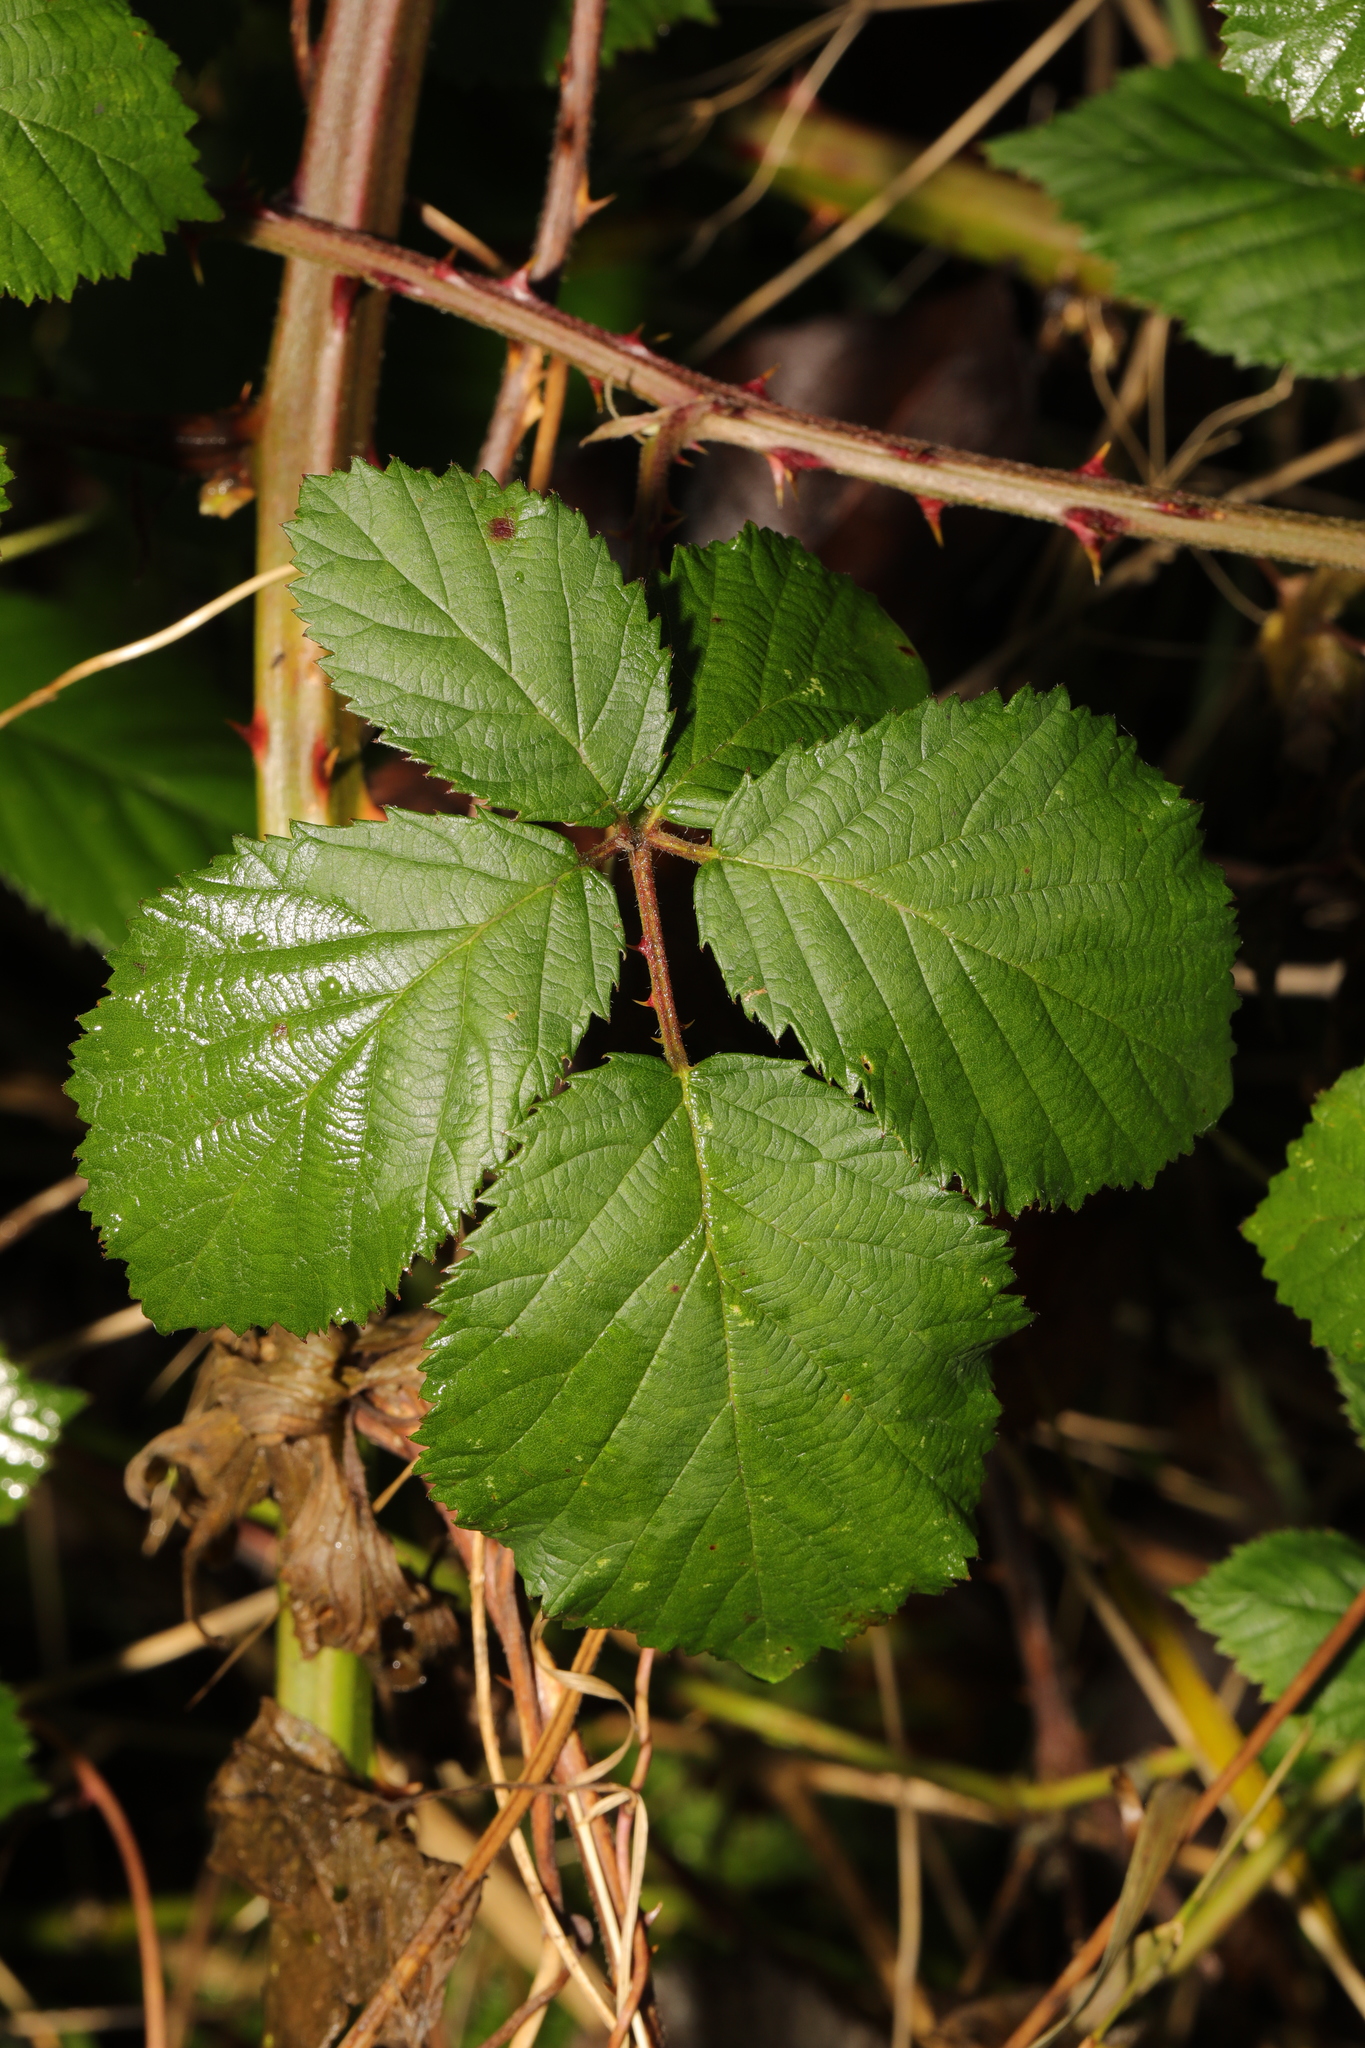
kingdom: Plantae
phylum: Tracheophyta
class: Magnoliopsida
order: Rosales
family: Rosaceae
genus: Rubus
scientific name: Rubus armeniacus
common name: Himalayan blackberry
